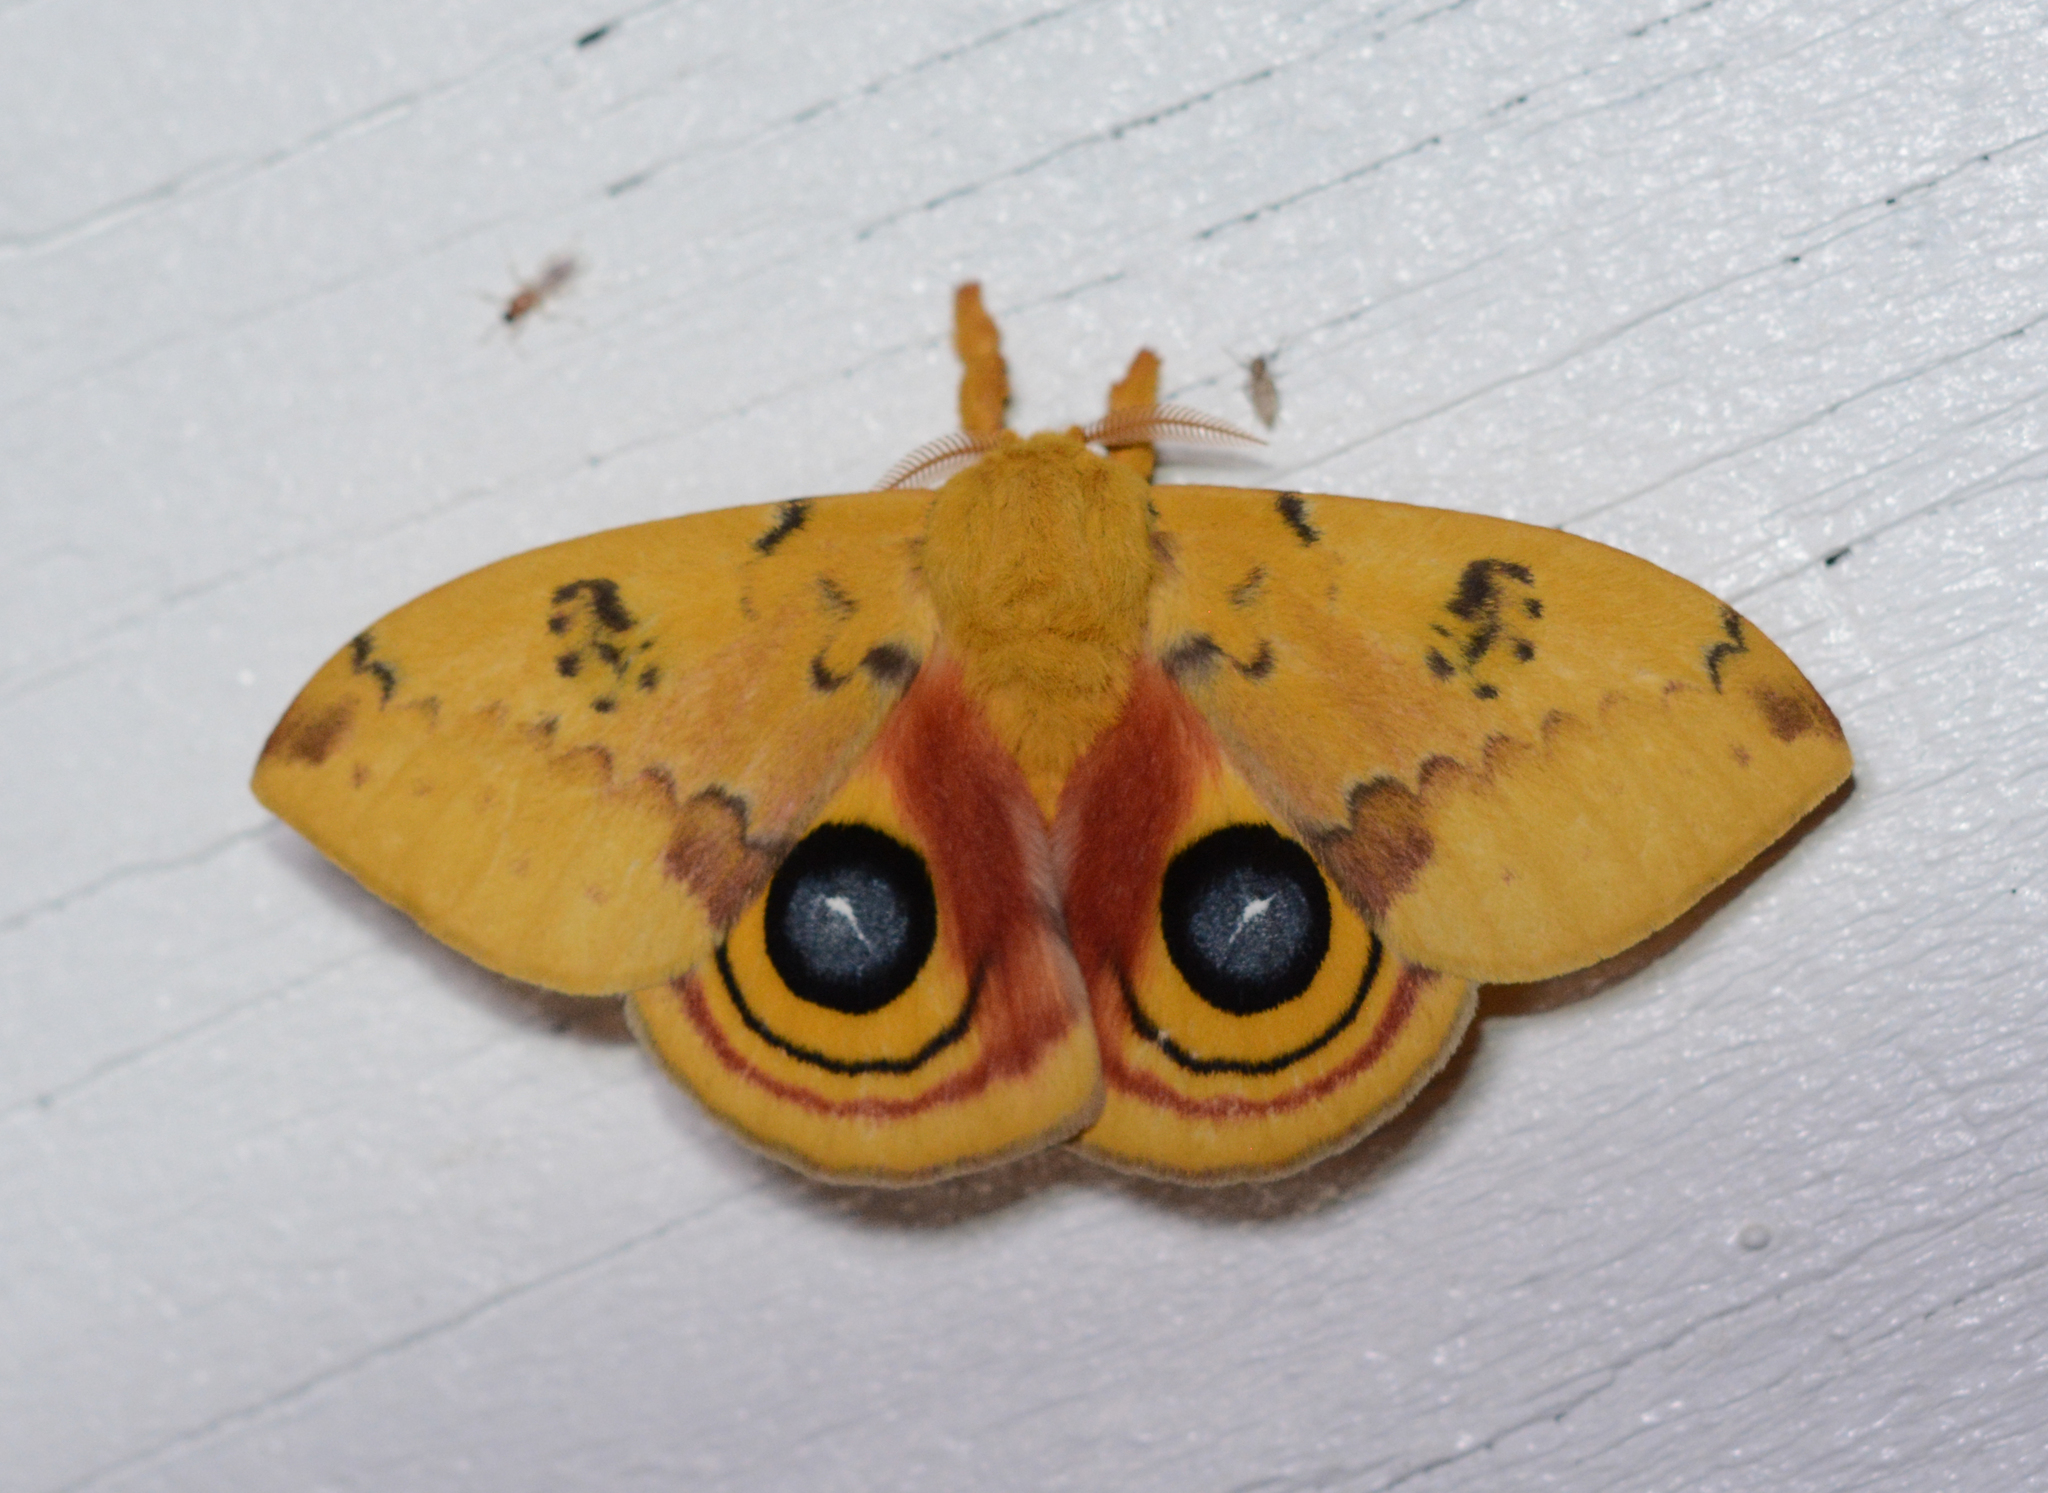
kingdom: Animalia
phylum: Arthropoda
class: Insecta
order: Lepidoptera
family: Saturniidae
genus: Automeris
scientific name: Automeris io
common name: Io moth
